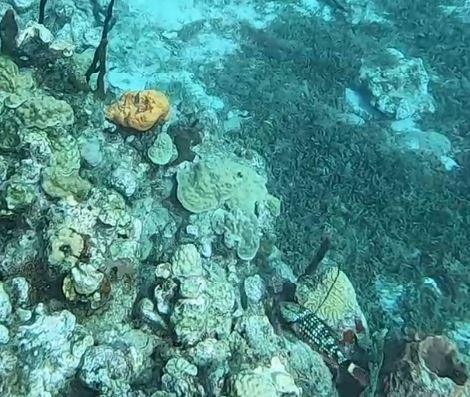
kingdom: Animalia
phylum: Chordata
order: Perciformes
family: Scaridae
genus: Sparisoma
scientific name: Sparisoma viride
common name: Stoplight parrotfish
